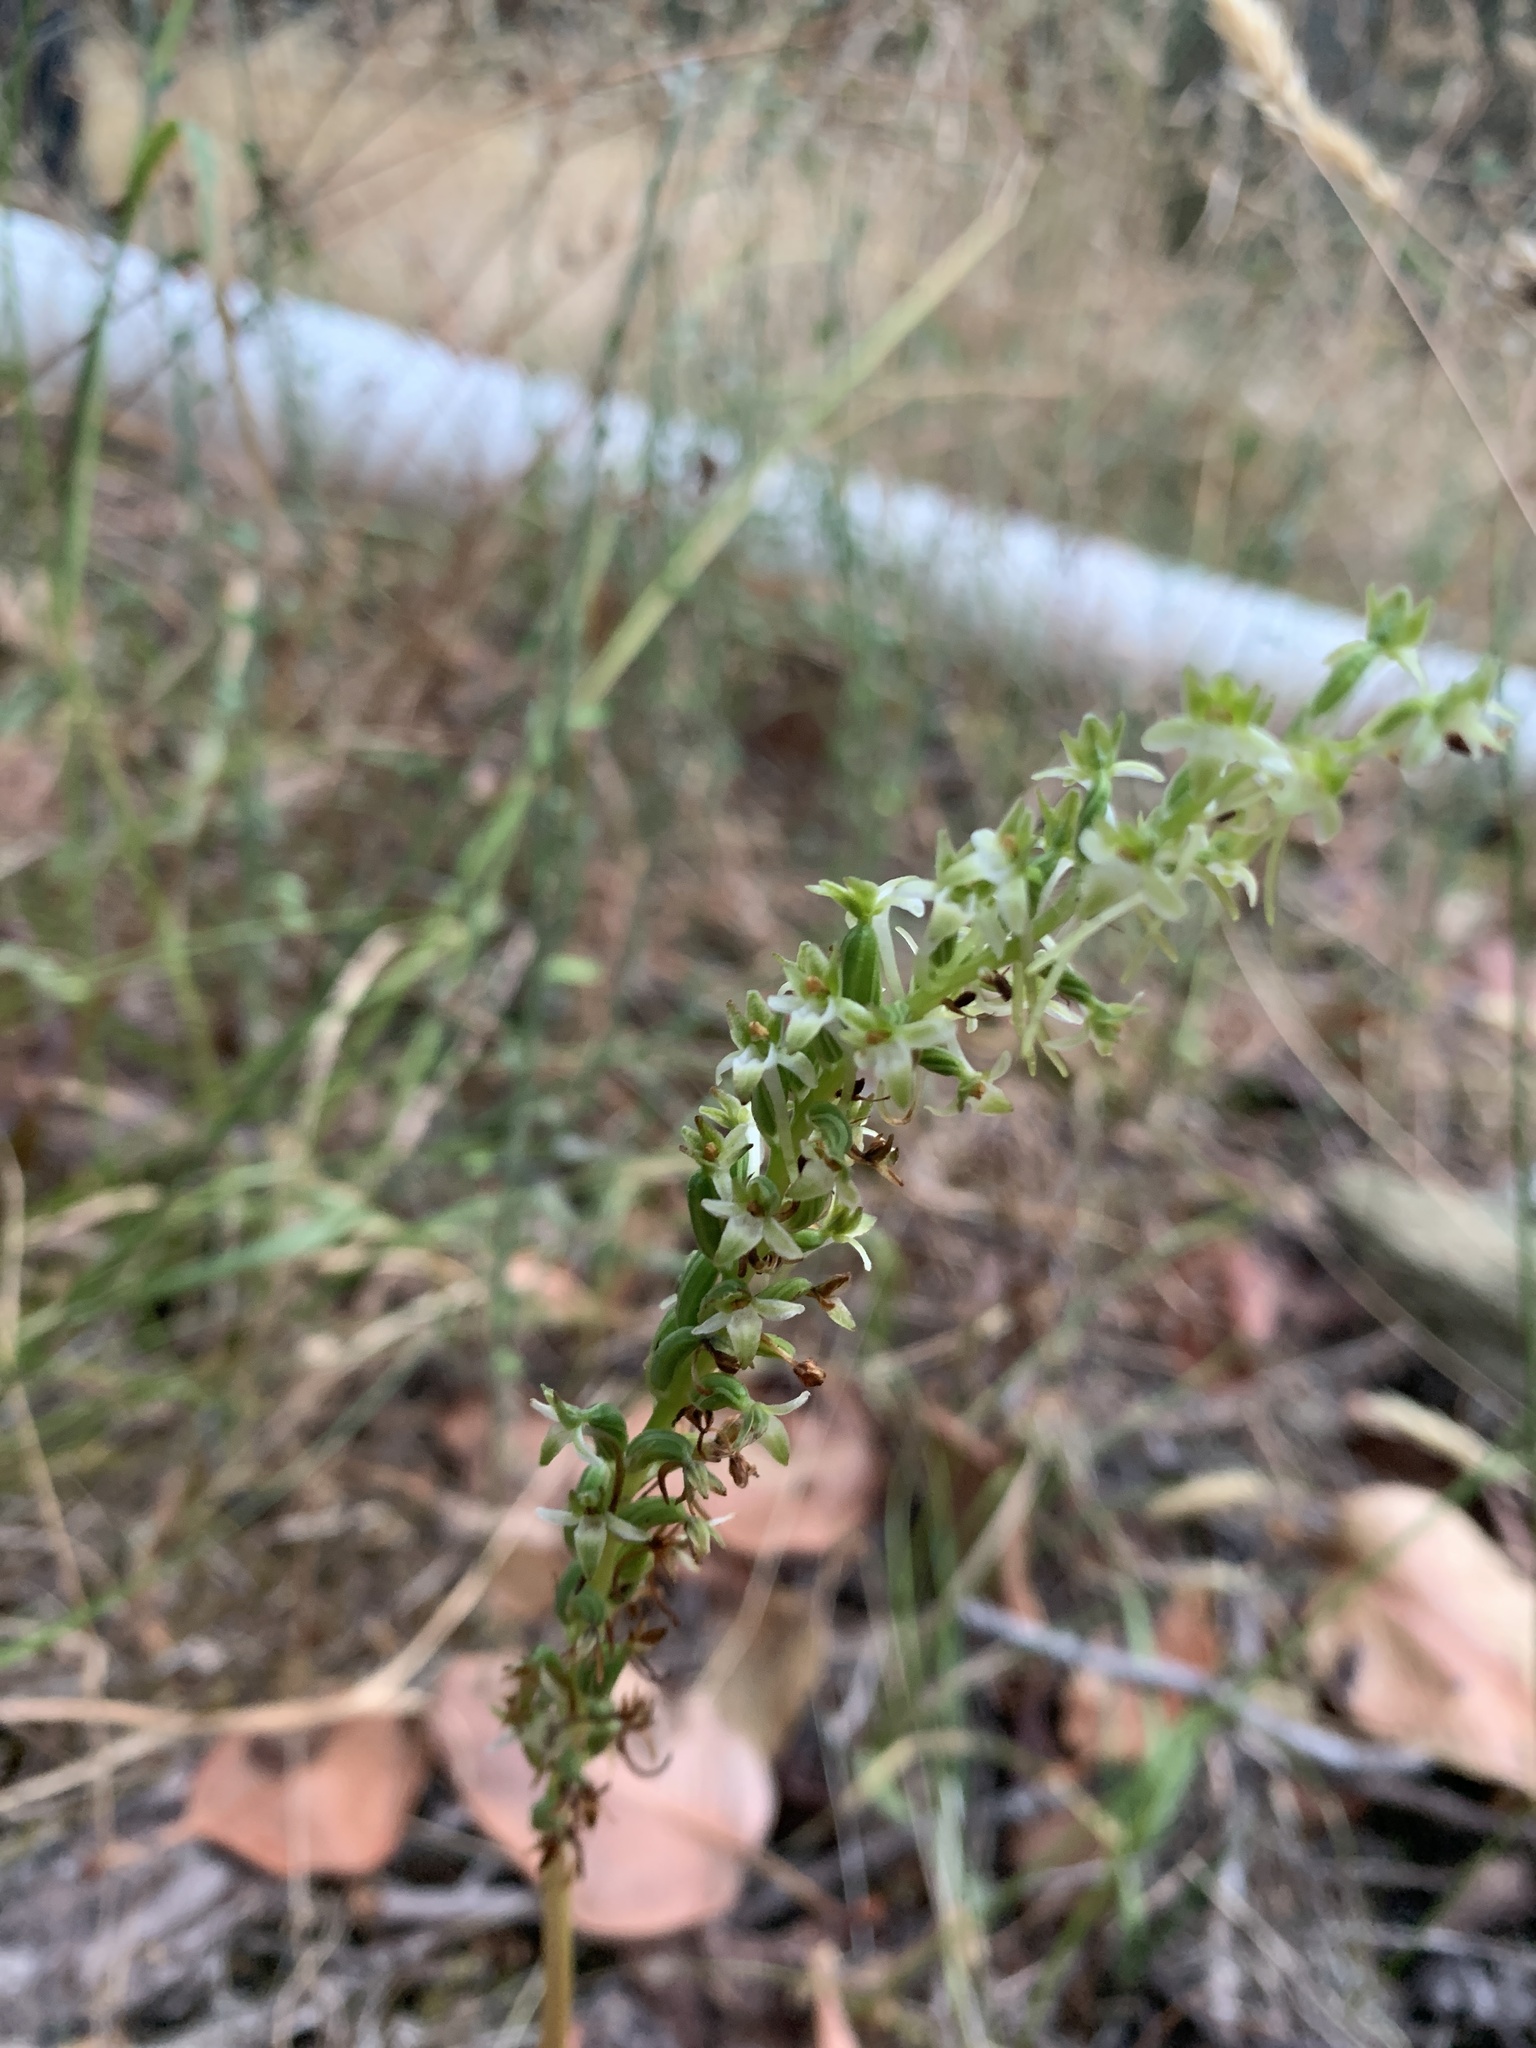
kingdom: Plantae
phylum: Tracheophyta
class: Liliopsida
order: Asparagales
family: Orchidaceae
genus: Platanthera
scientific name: Platanthera elongata
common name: Dense-flowered rein orchid
